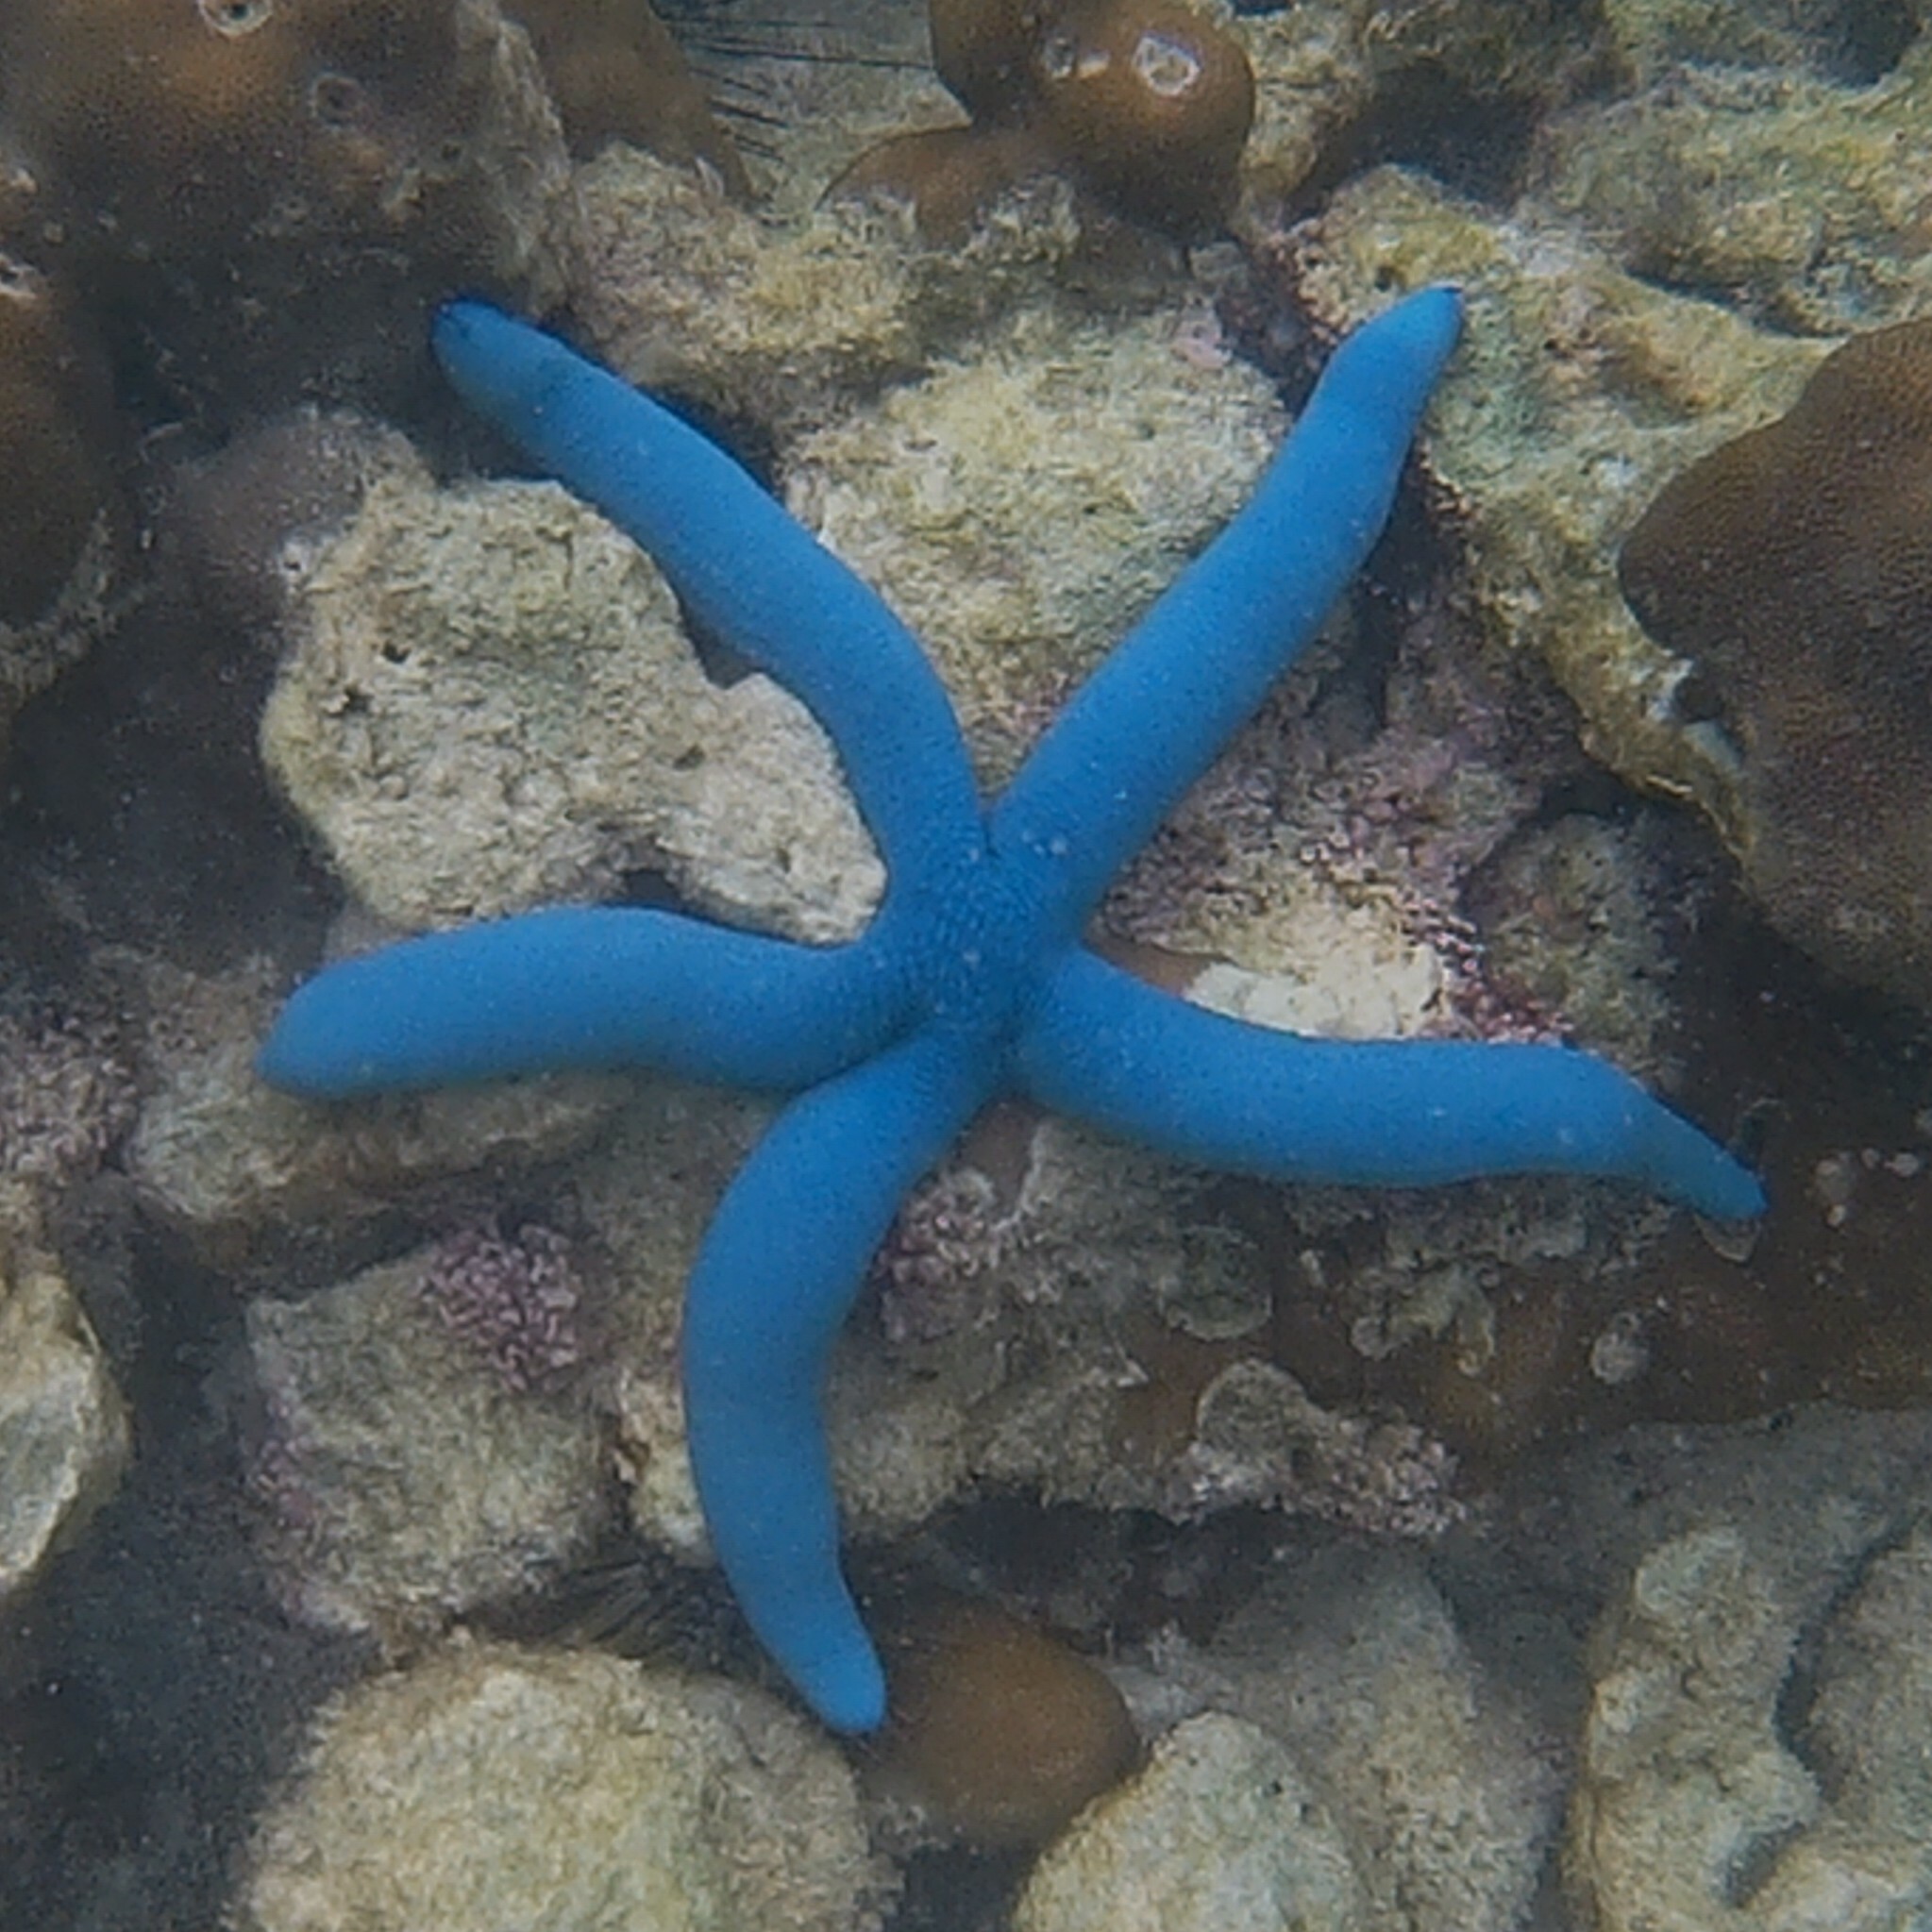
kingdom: Animalia
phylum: Echinodermata
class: Asteroidea
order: Valvatida
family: Ophidiasteridae
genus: Linckia
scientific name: Linckia laevigata
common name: Azure sea star
